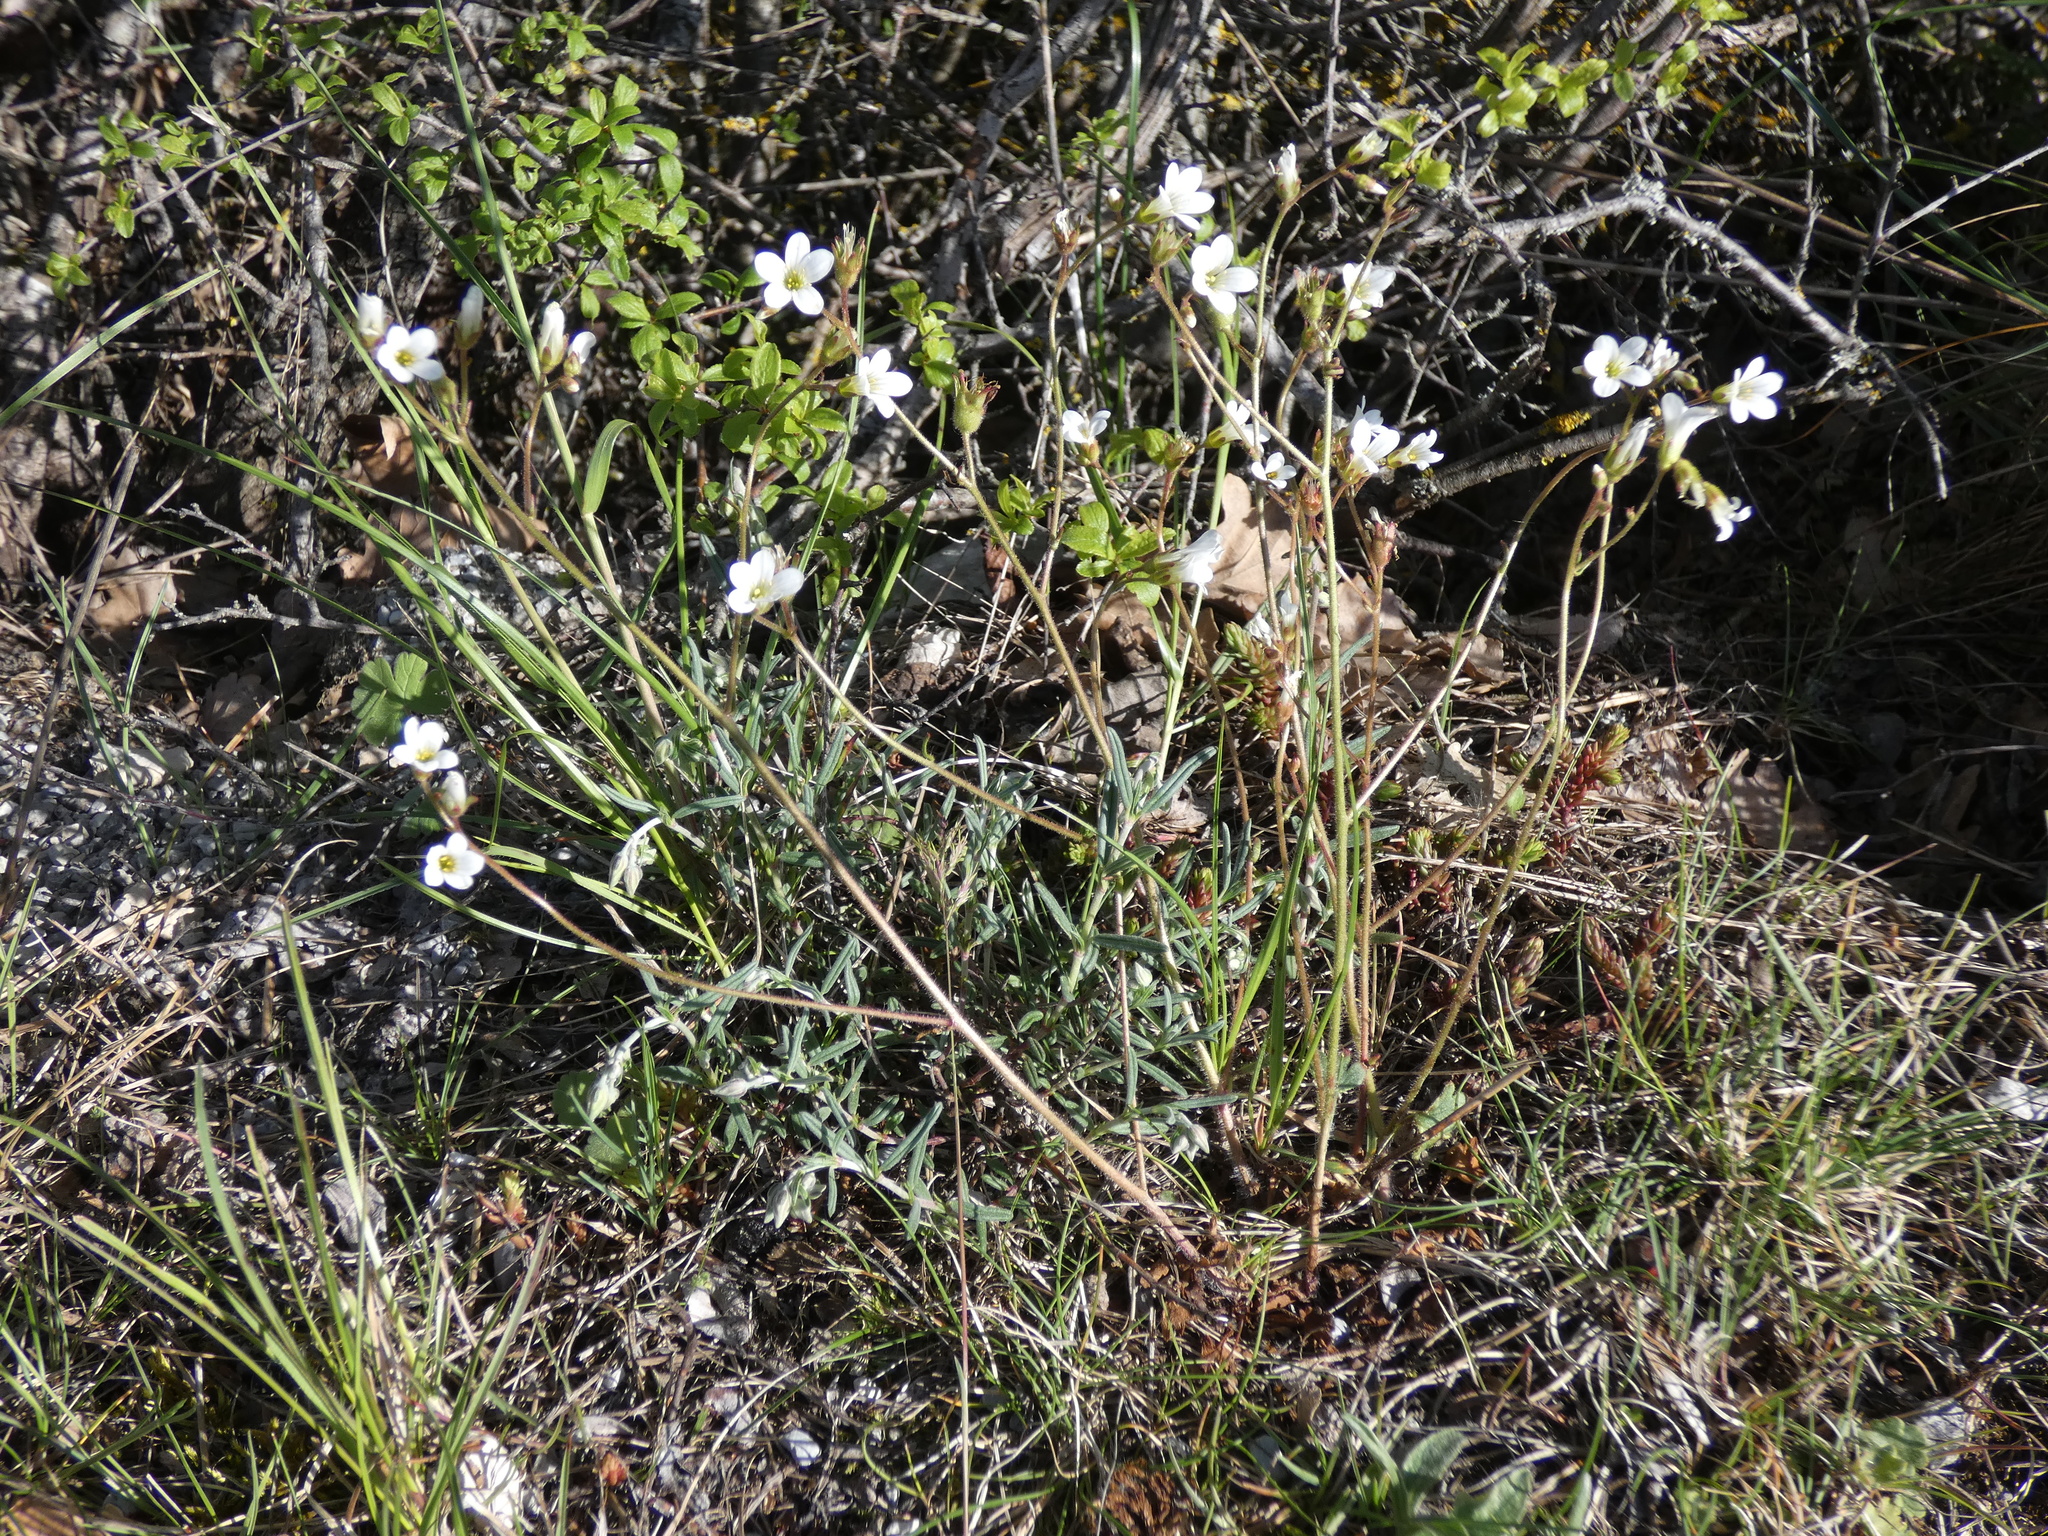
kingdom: Plantae
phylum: Tracheophyta
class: Magnoliopsida
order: Saxifragales
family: Saxifragaceae
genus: Saxifraga
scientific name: Saxifraga granulata
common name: Meadow saxifrage
